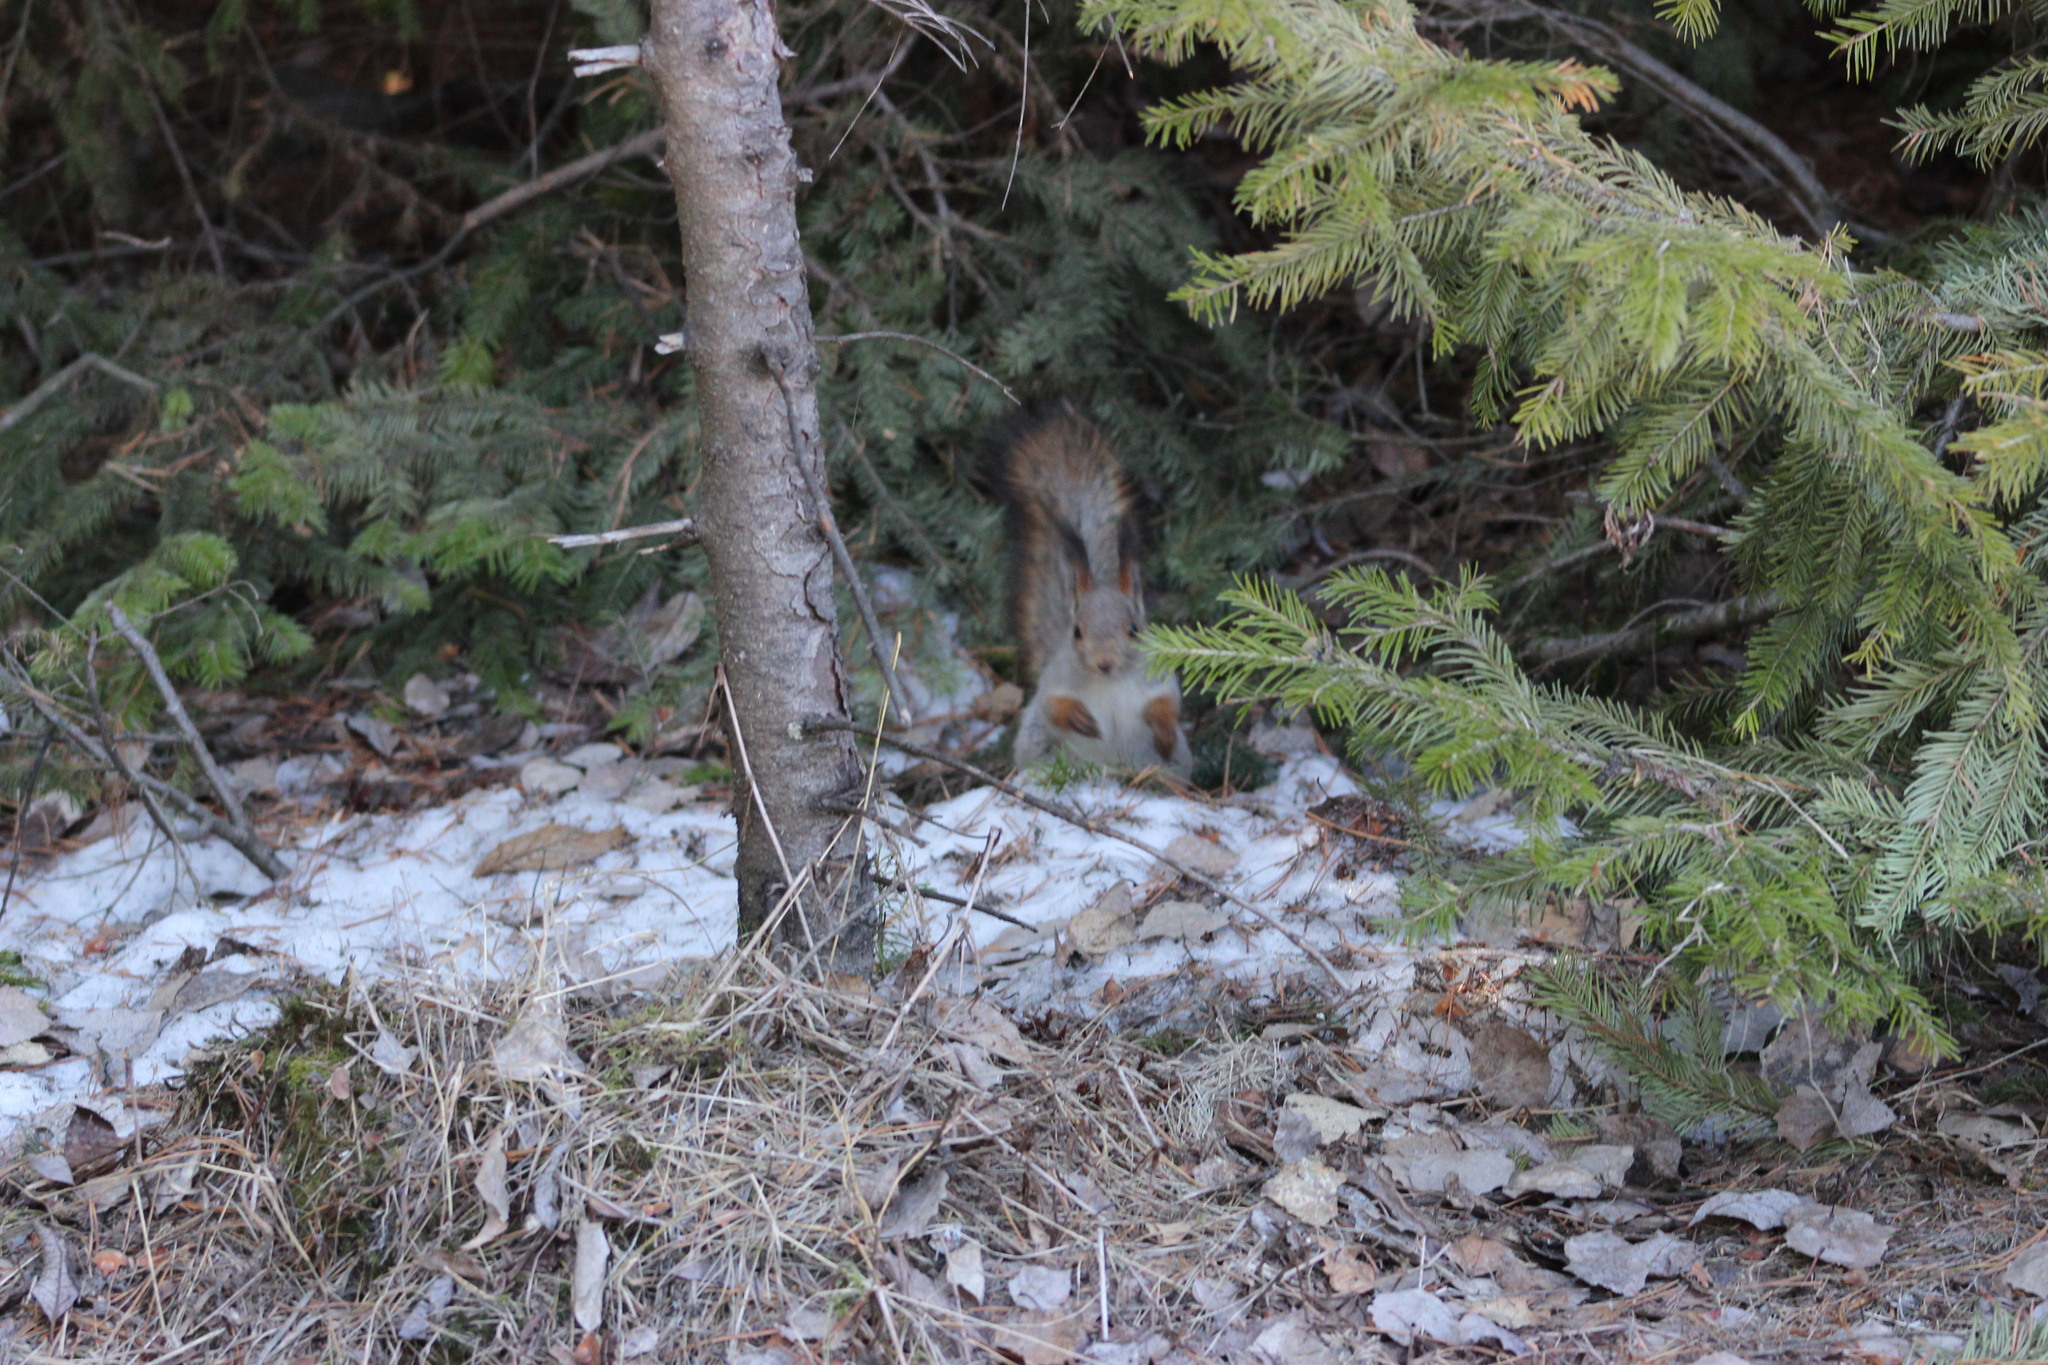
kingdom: Animalia
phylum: Chordata
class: Mammalia
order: Rodentia
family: Sciuridae
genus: Sciurus
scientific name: Sciurus vulgaris
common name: Eurasian red squirrel
